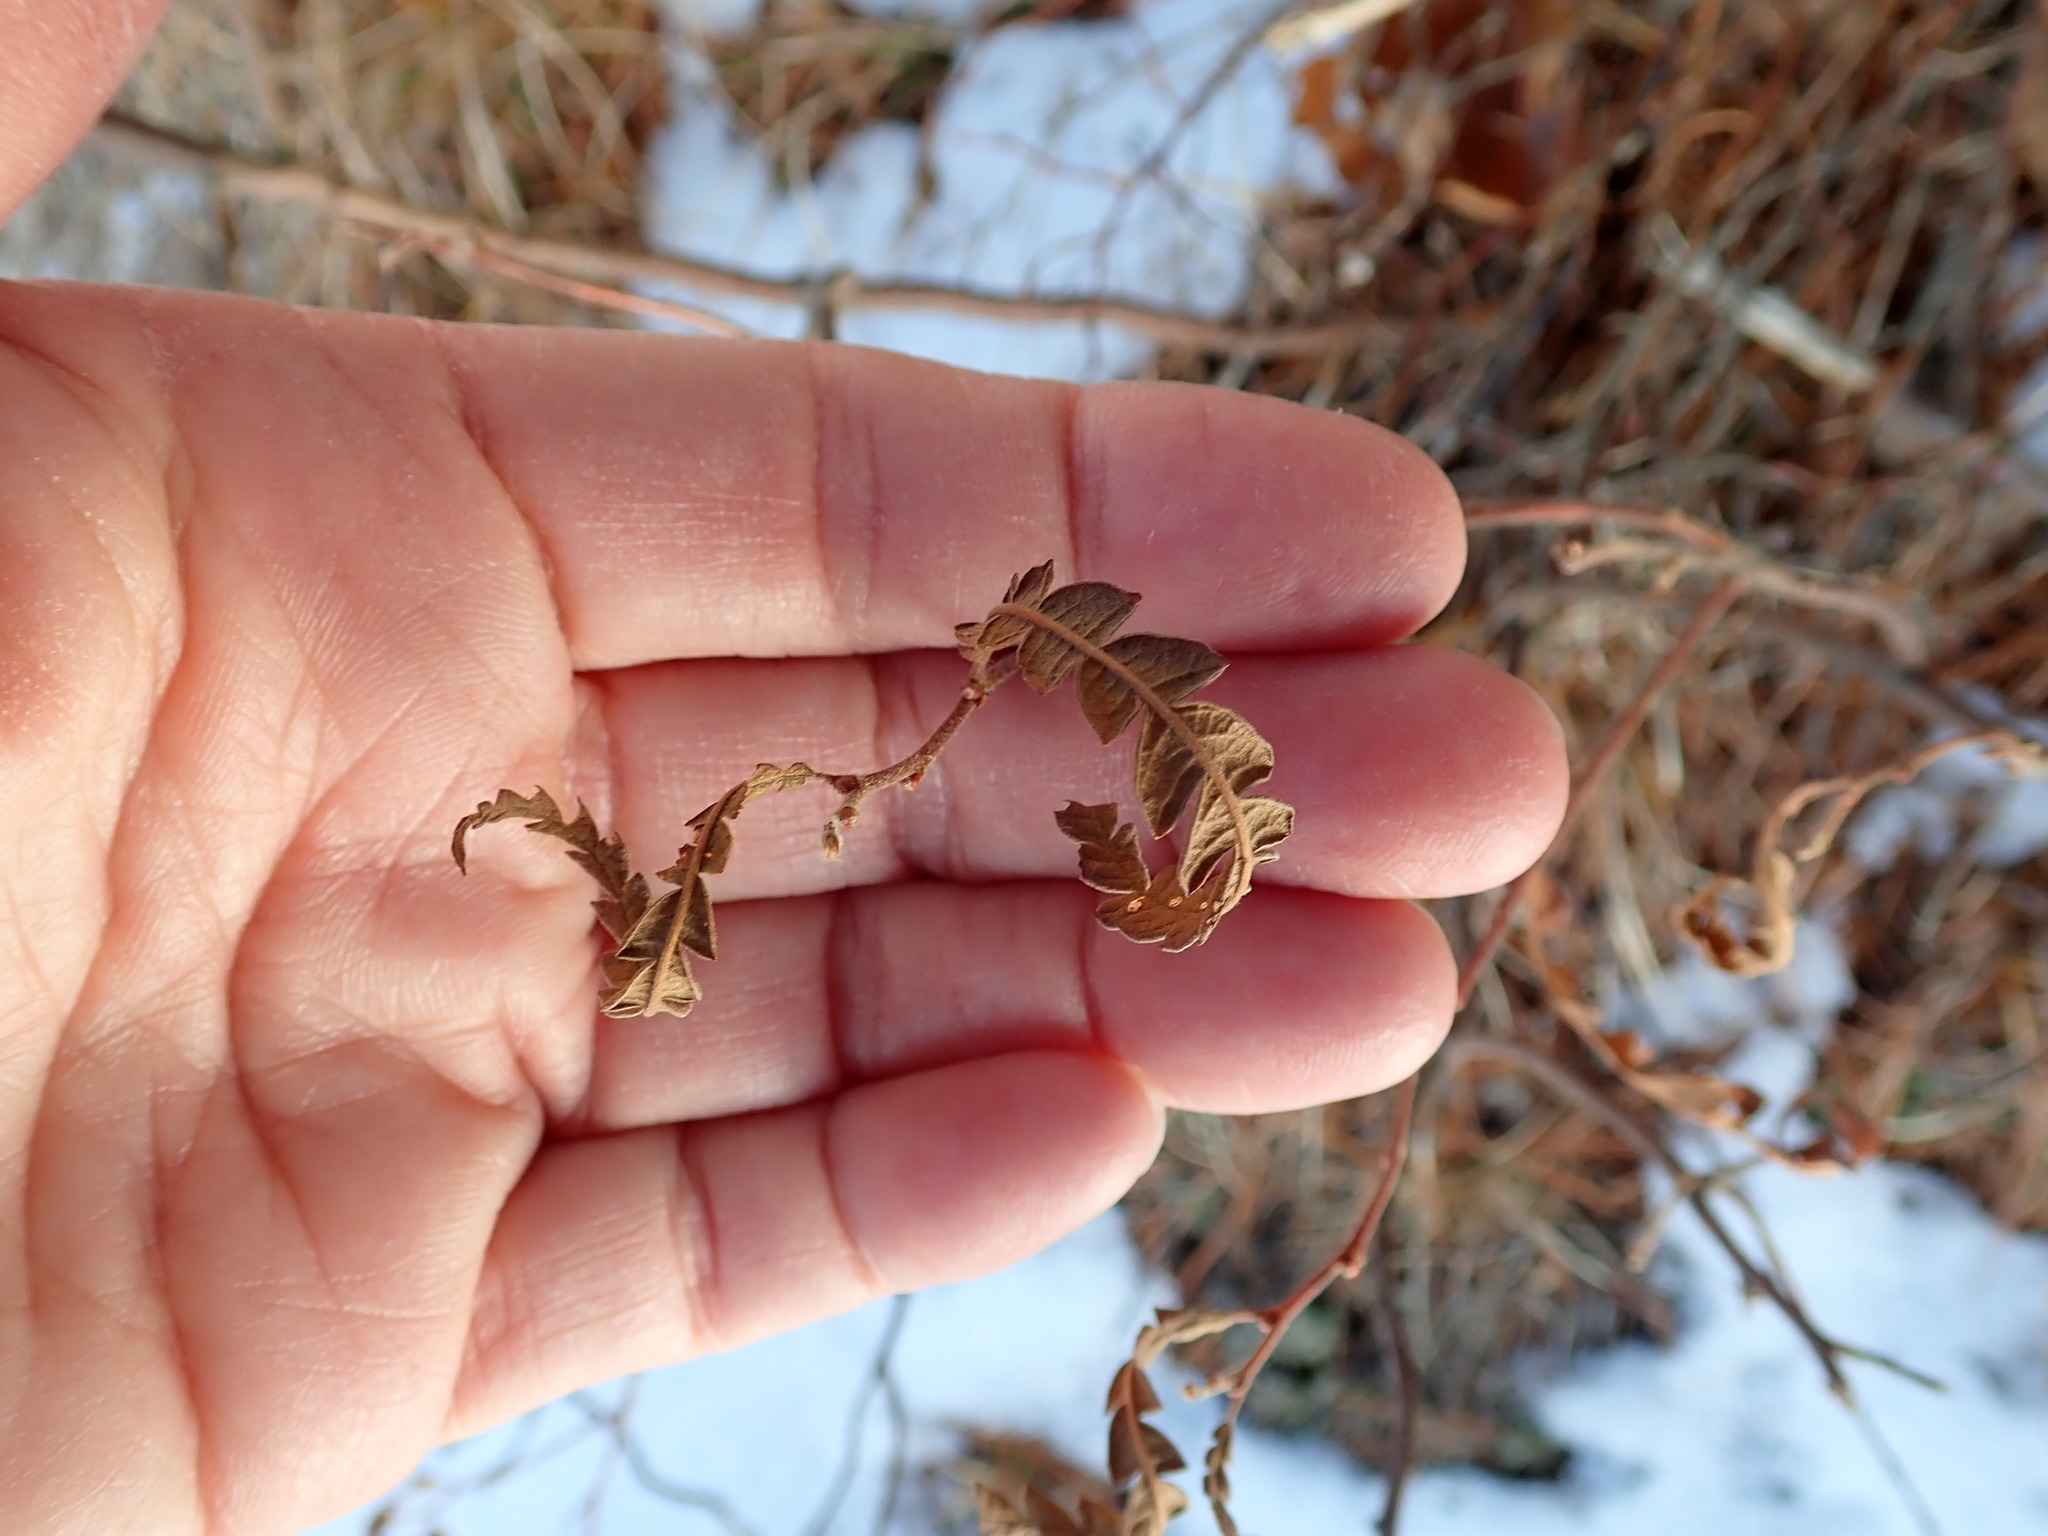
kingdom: Plantae
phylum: Tracheophyta
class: Magnoliopsida
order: Fagales
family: Myricaceae
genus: Comptonia
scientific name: Comptonia peregrina
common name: Sweet-fern
